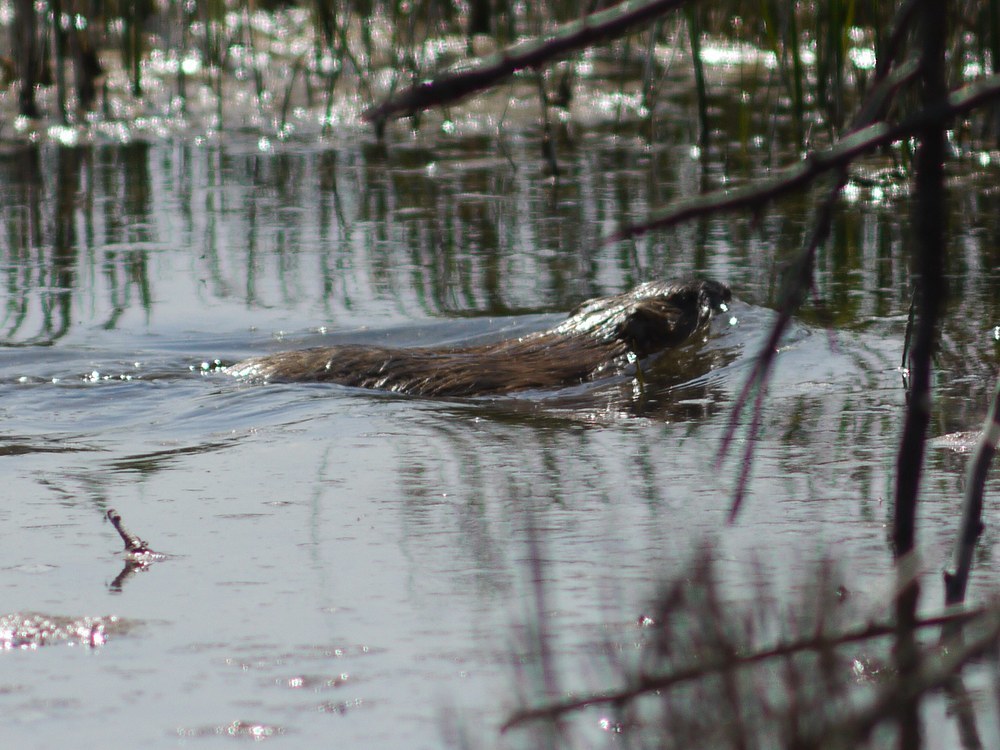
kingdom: Animalia
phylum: Chordata
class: Mammalia
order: Rodentia
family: Cricetidae
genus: Ondatra
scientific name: Ondatra zibethicus
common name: Muskrat
